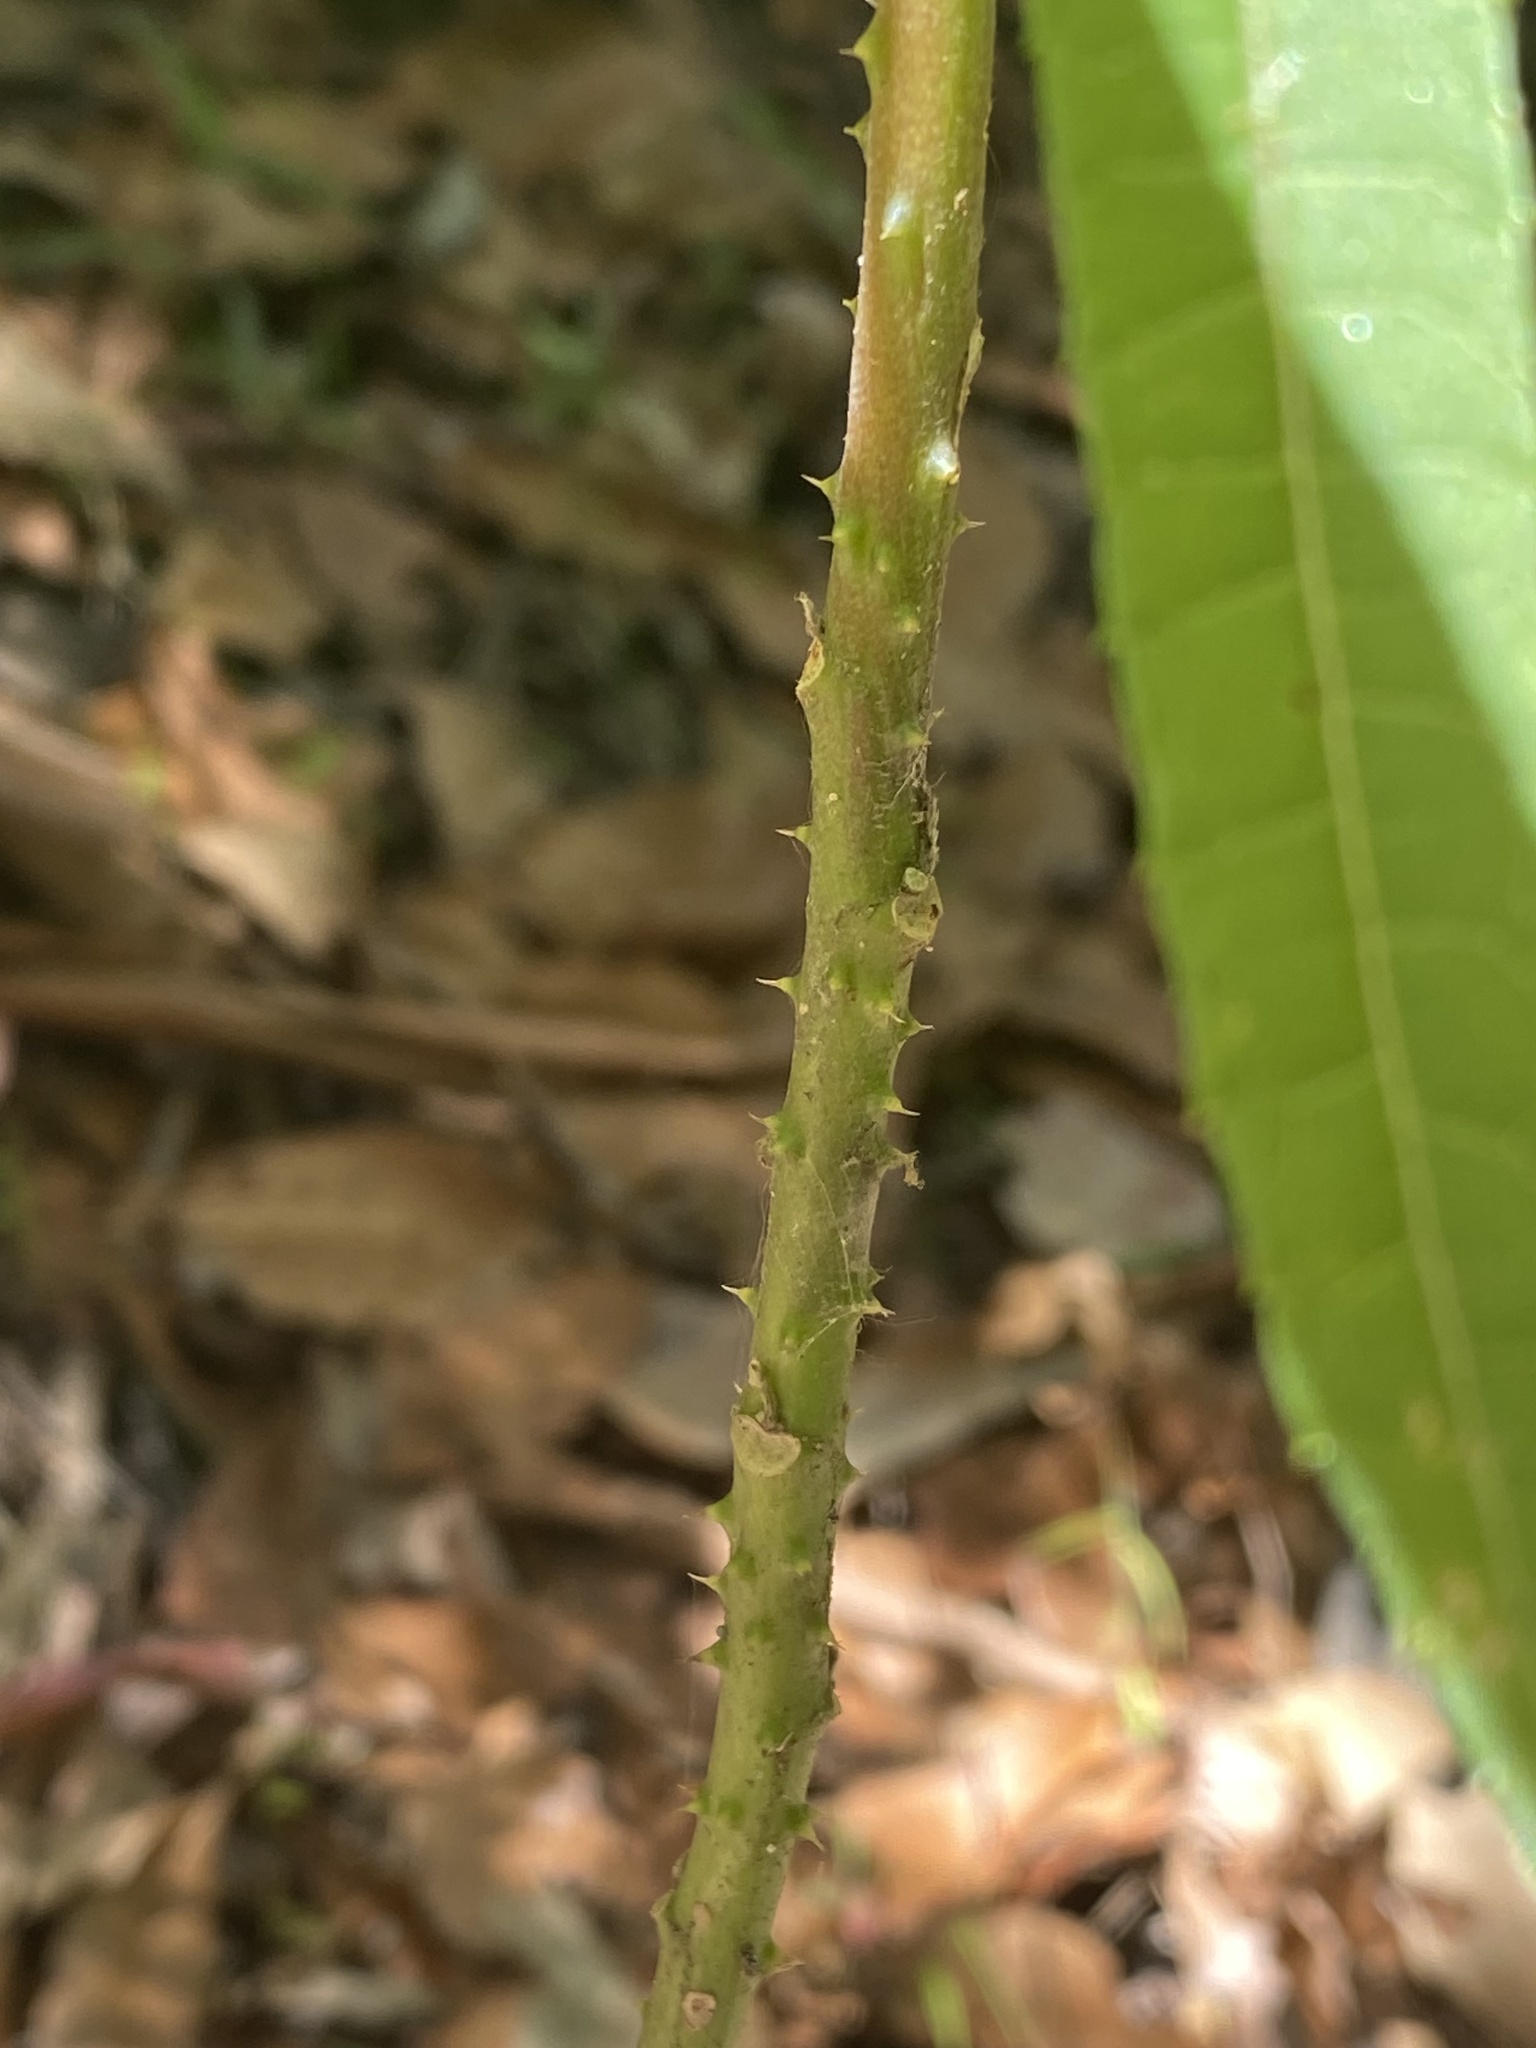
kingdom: Plantae
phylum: Tracheophyta
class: Magnoliopsida
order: Malvales
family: Malvaceae
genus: Hibiscus
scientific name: Hibiscus heterophyllus
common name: Queensland-sorrel
